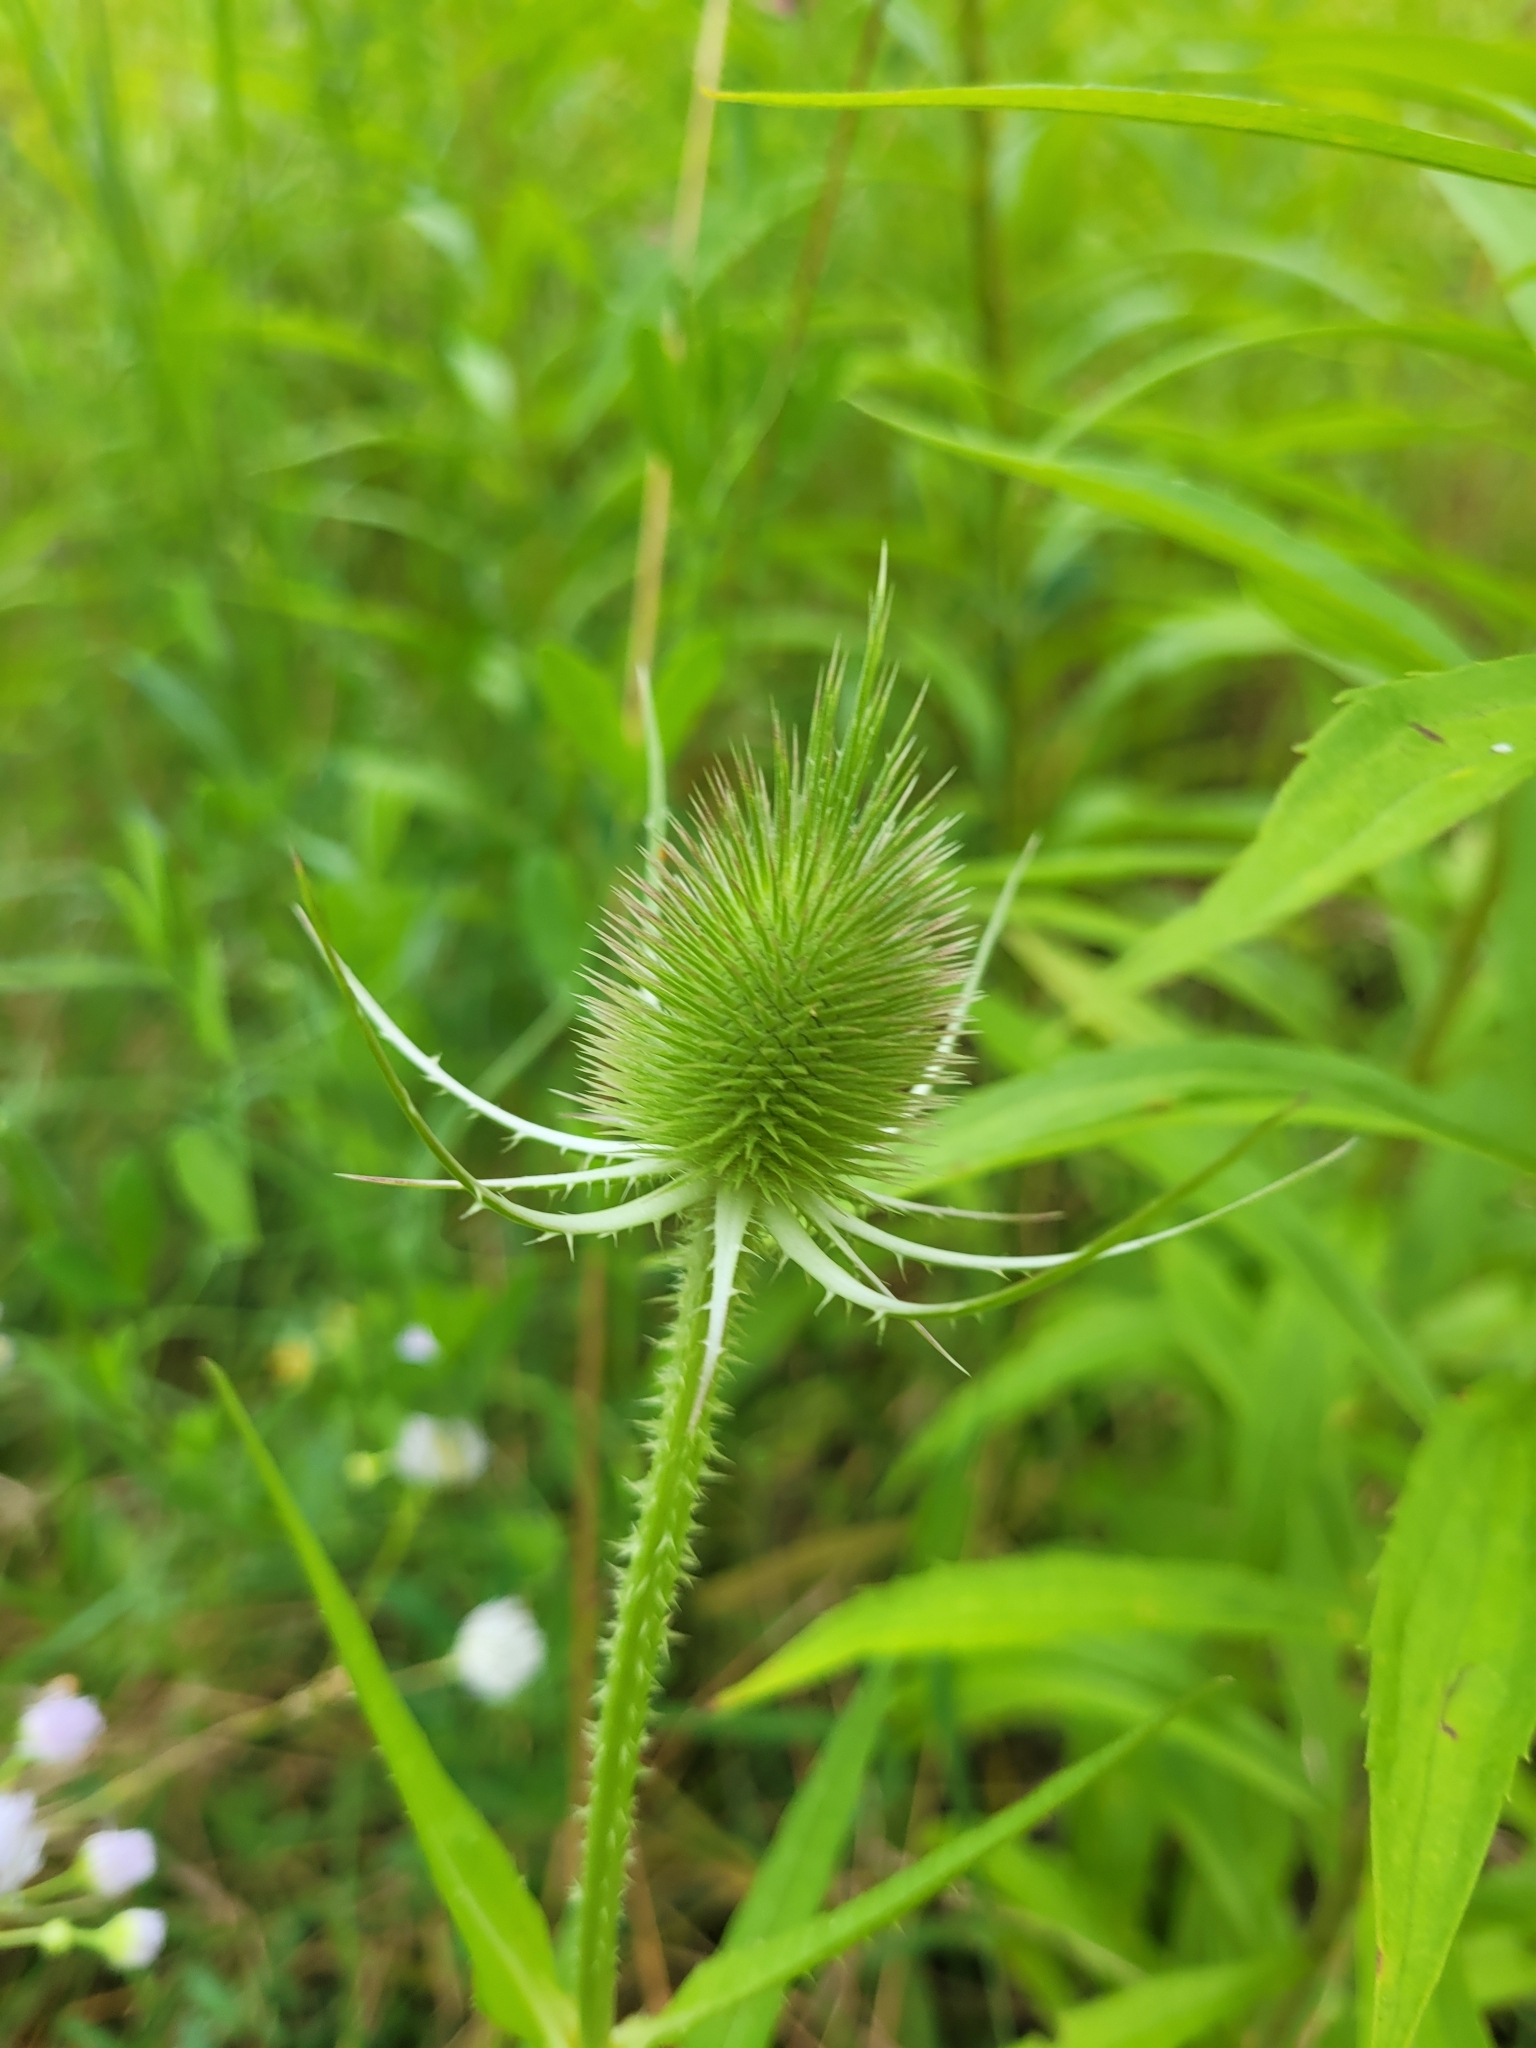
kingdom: Plantae
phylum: Tracheophyta
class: Magnoliopsida
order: Dipsacales
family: Caprifoliaceae
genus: Dipsacus
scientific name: Dipsacus fullonum
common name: Teasel
